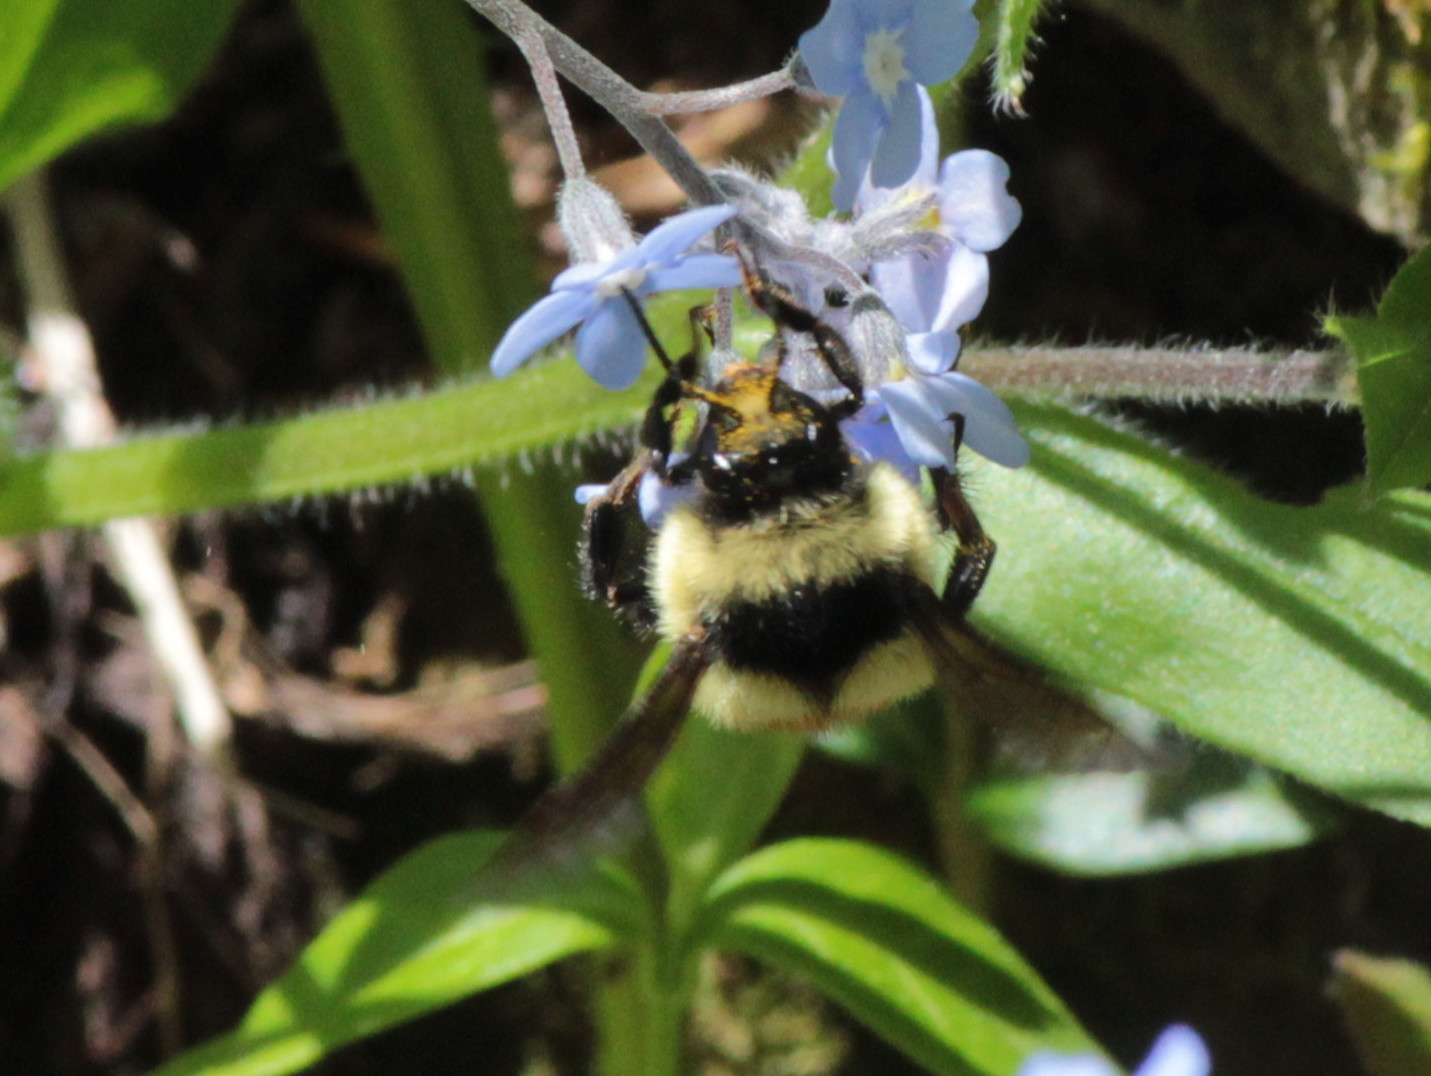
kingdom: Animalia
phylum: Arthropoda
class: Insecta
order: Hymenoptera
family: Apidae
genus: Bombus
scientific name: Bombus ternarius
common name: Tri-colored bumble bee
